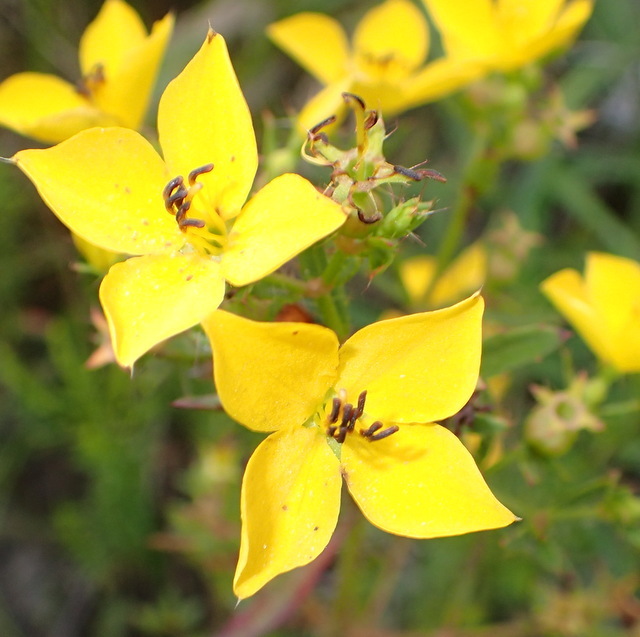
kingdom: Plantae
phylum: Tracheophyta
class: Magnoliopsida
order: Myrtales
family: Melastomataceae
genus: Rhexia
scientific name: Rhexia lutea
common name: Golden meadow-beauty
